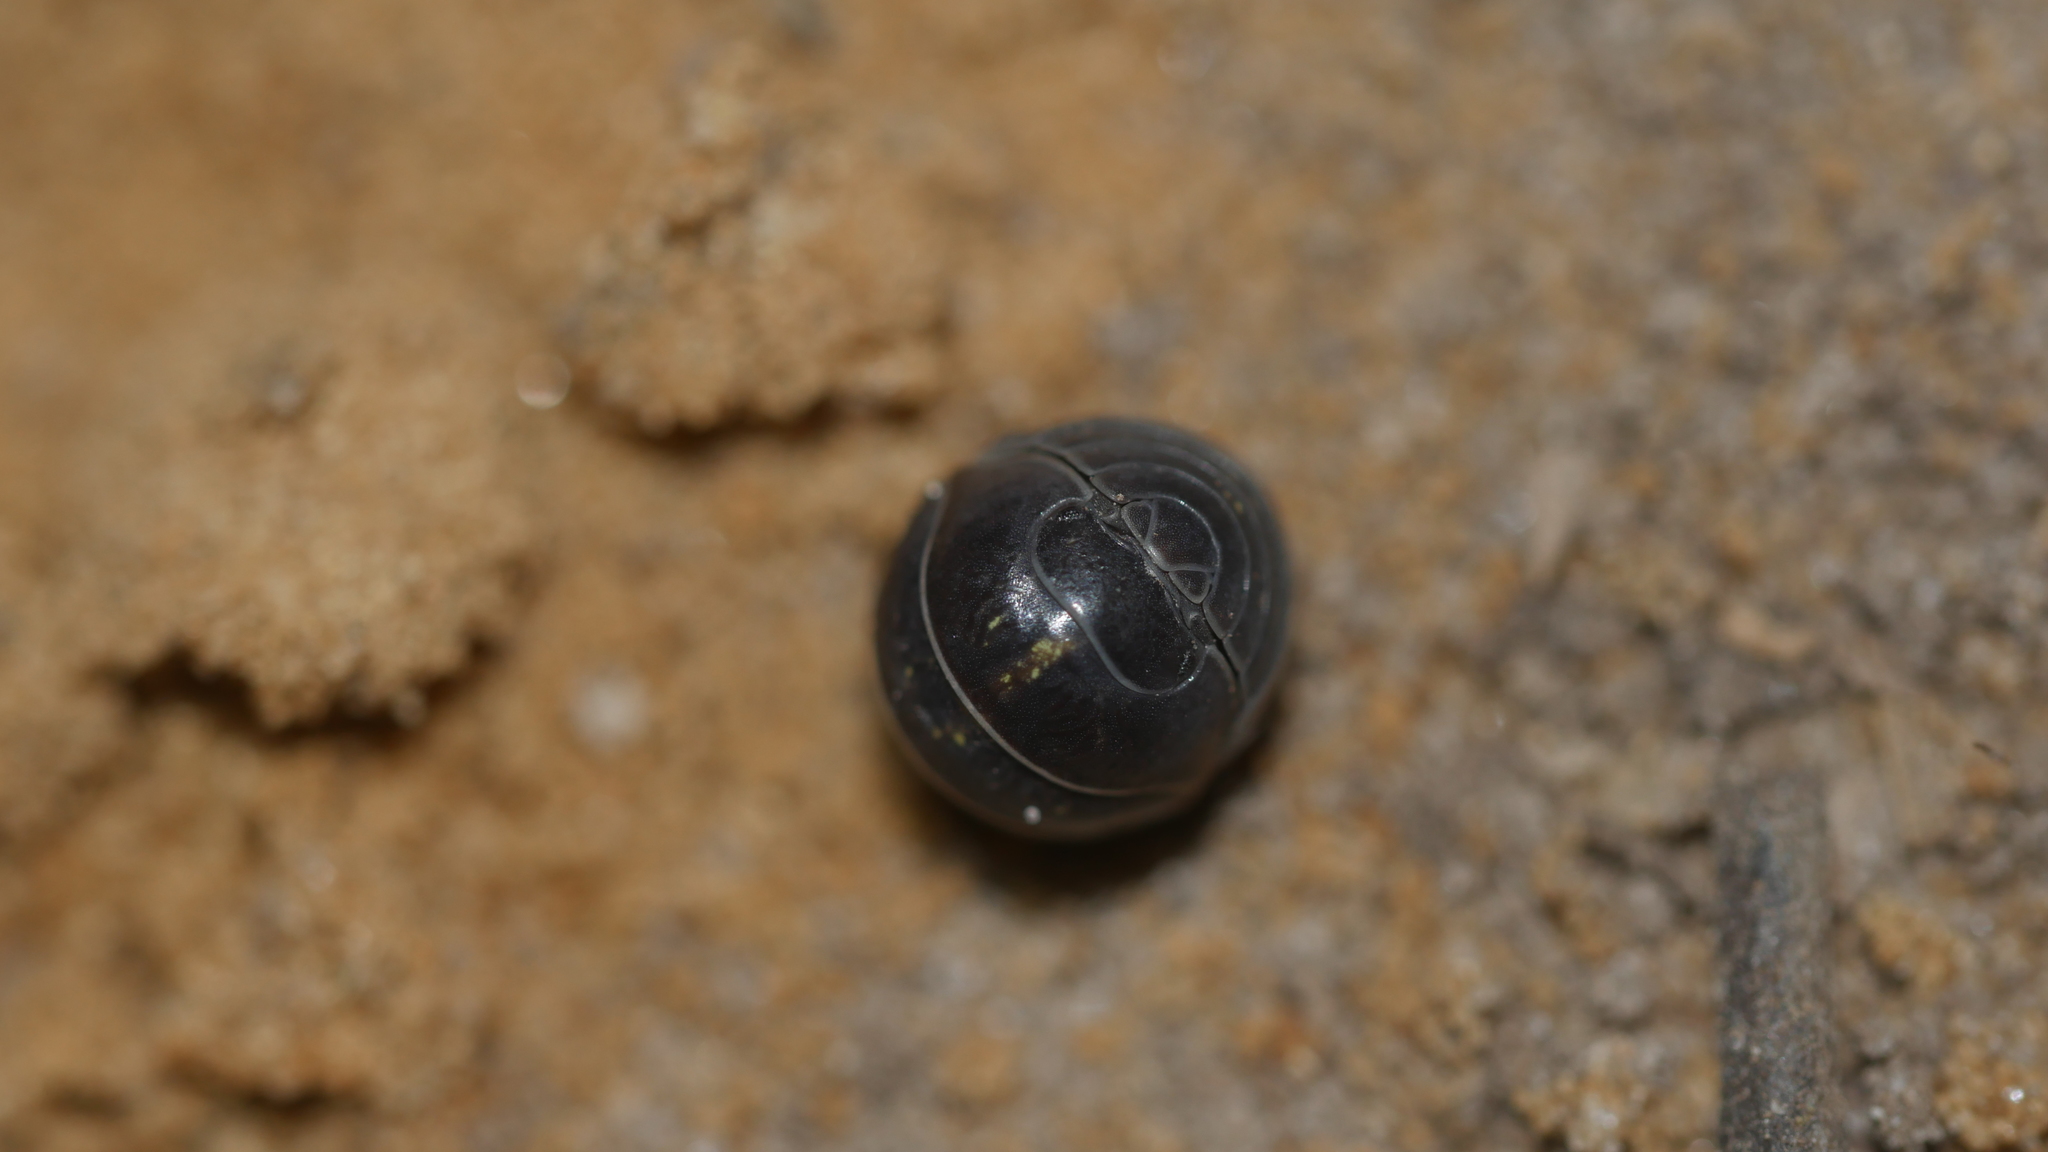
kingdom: Animalia
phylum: Arthropoda
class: Malacostraca
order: Isopoda
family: Armadillidiidae
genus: Armadillidium
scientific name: Armadillidium vulgare
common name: Common pill woodlouse
